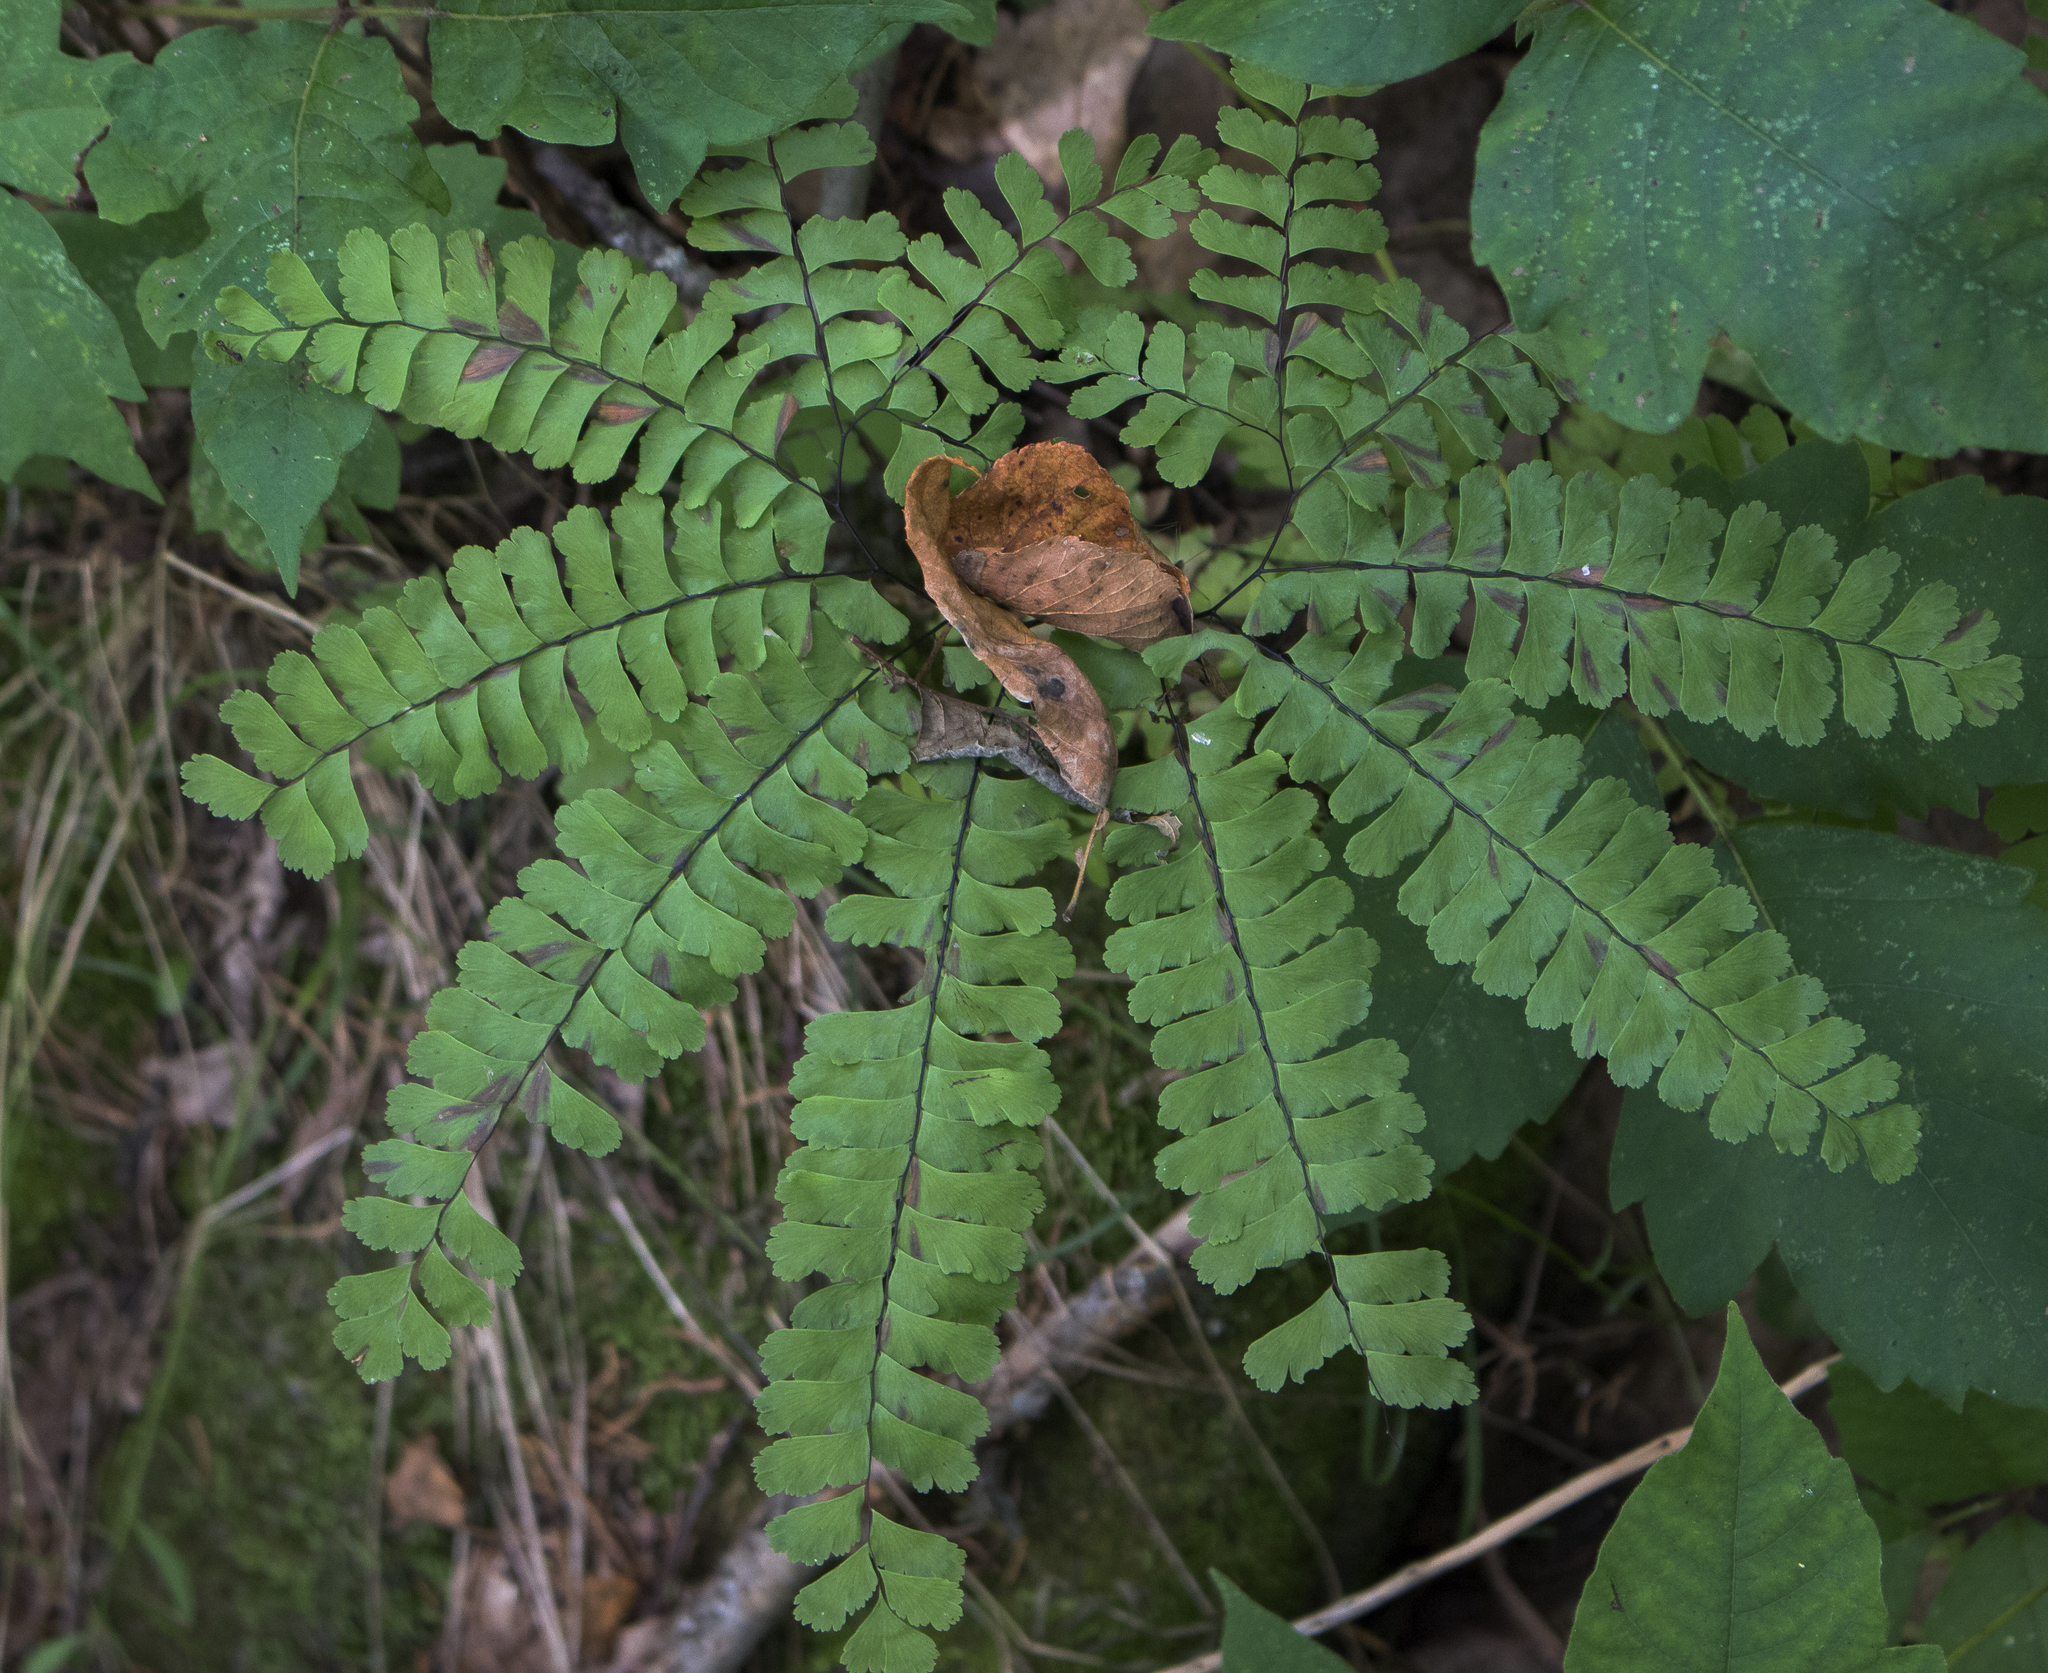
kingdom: Plantae
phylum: Tracheophyta
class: Polypodiopsida
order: Polypodiales
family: Pteridaceae
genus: Adiantum
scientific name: Adiantum pedatum
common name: Five-finger fern
